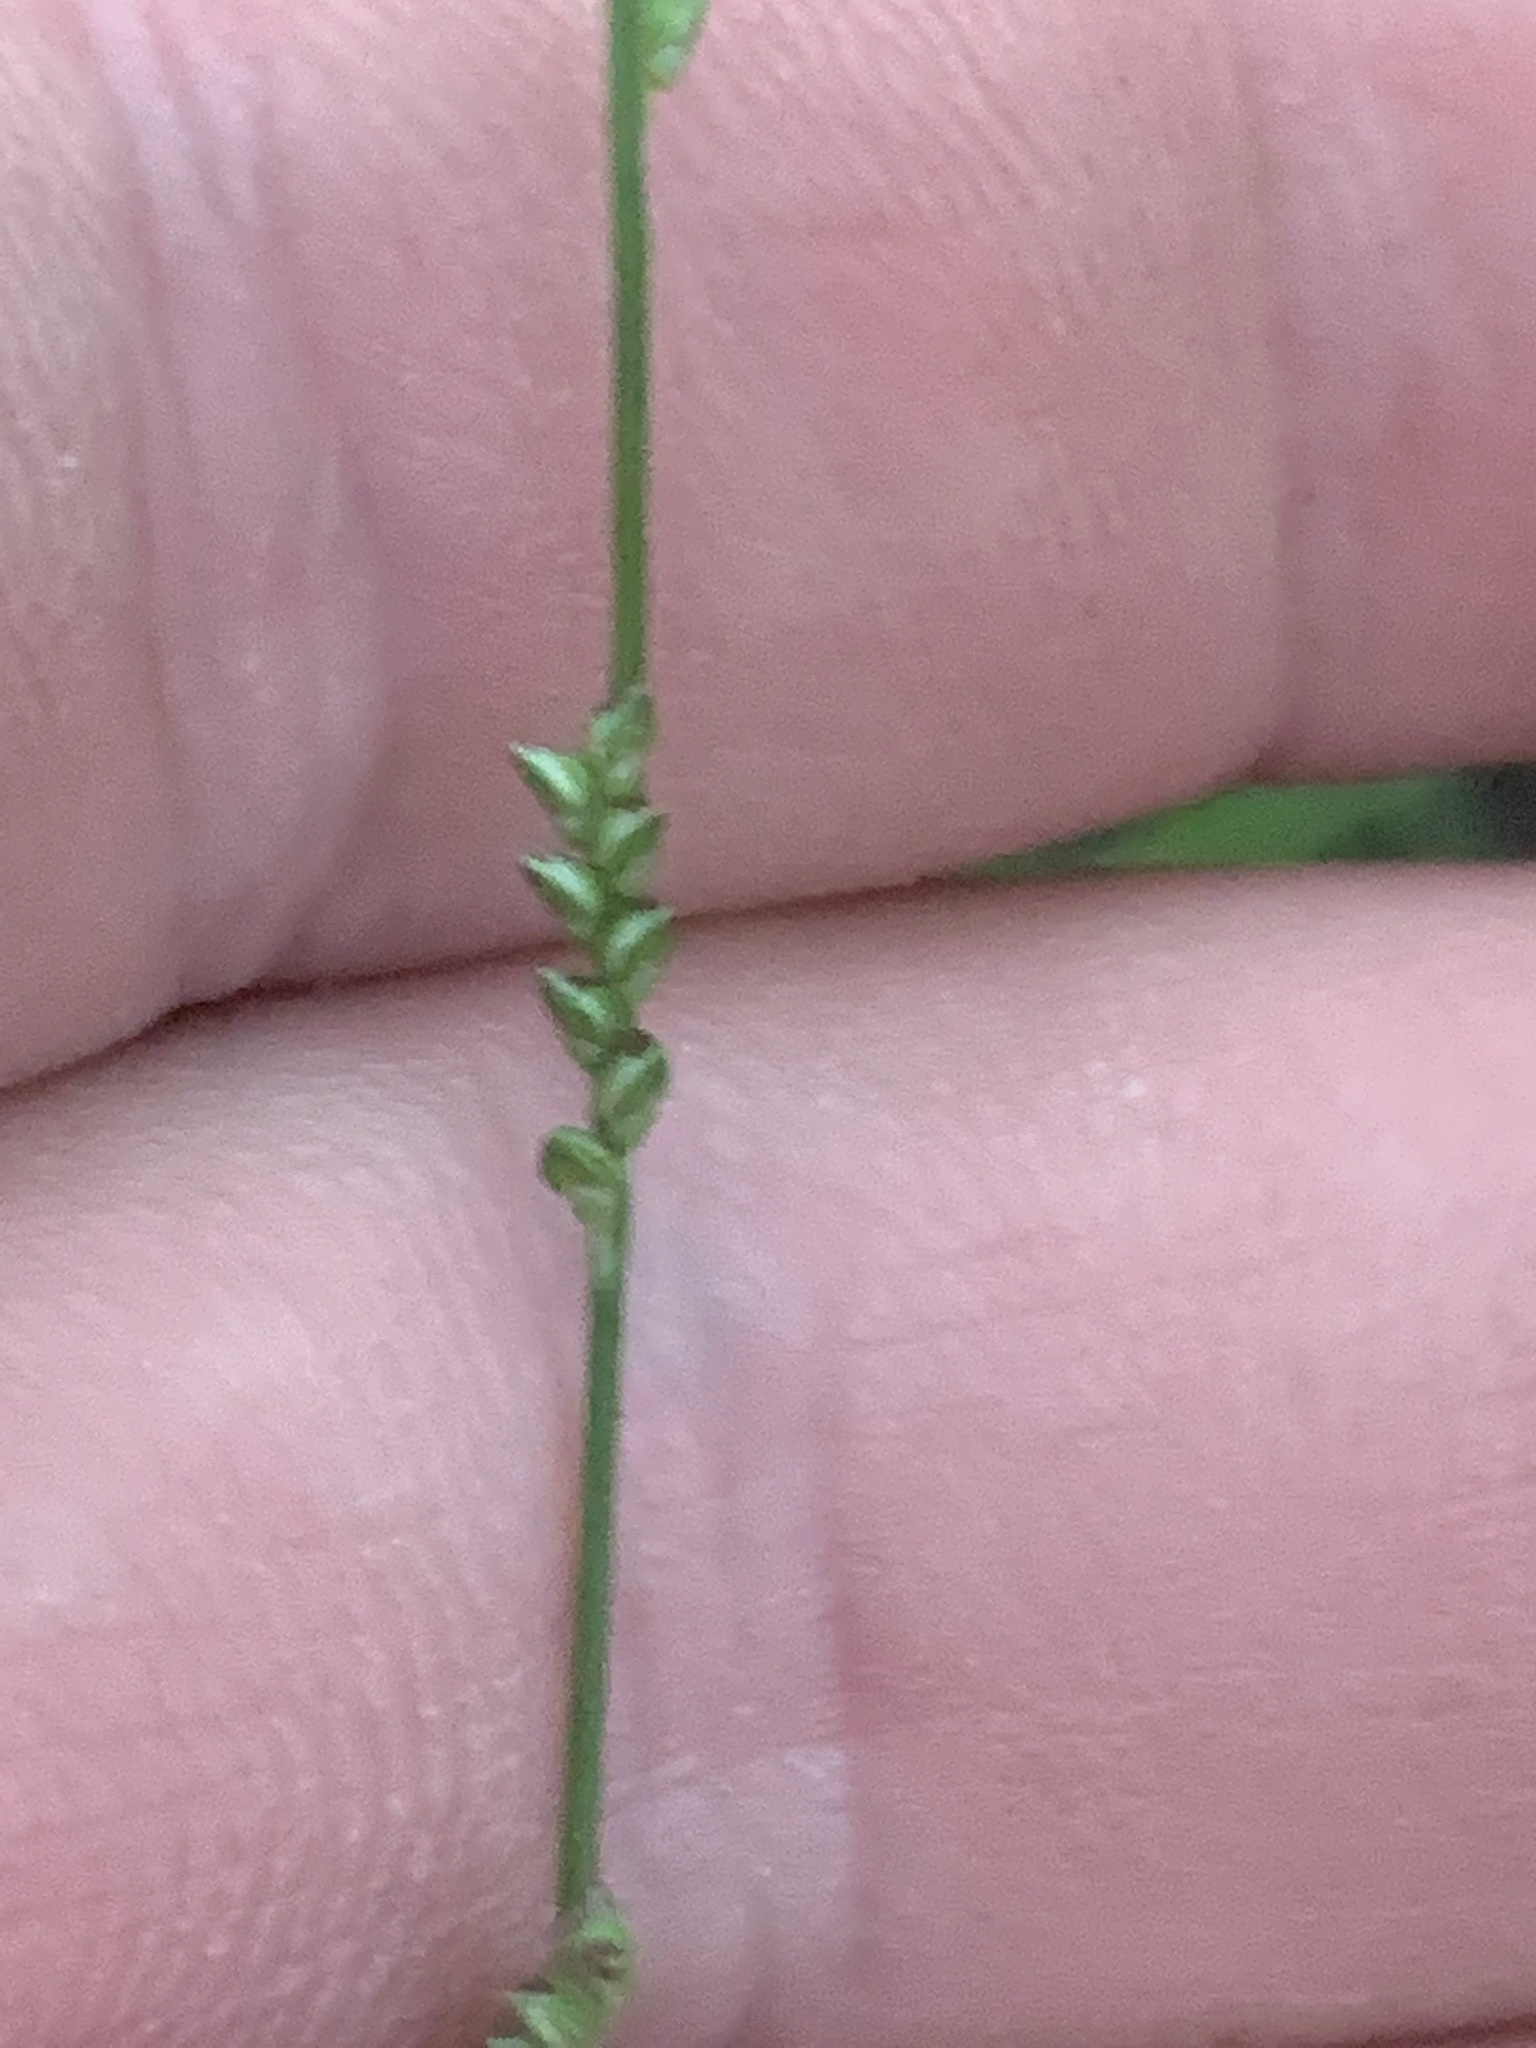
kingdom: Plantae
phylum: Tracheophyta
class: Liliopsida
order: Poales
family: Poaceae
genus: Setaria
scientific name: Setaria
